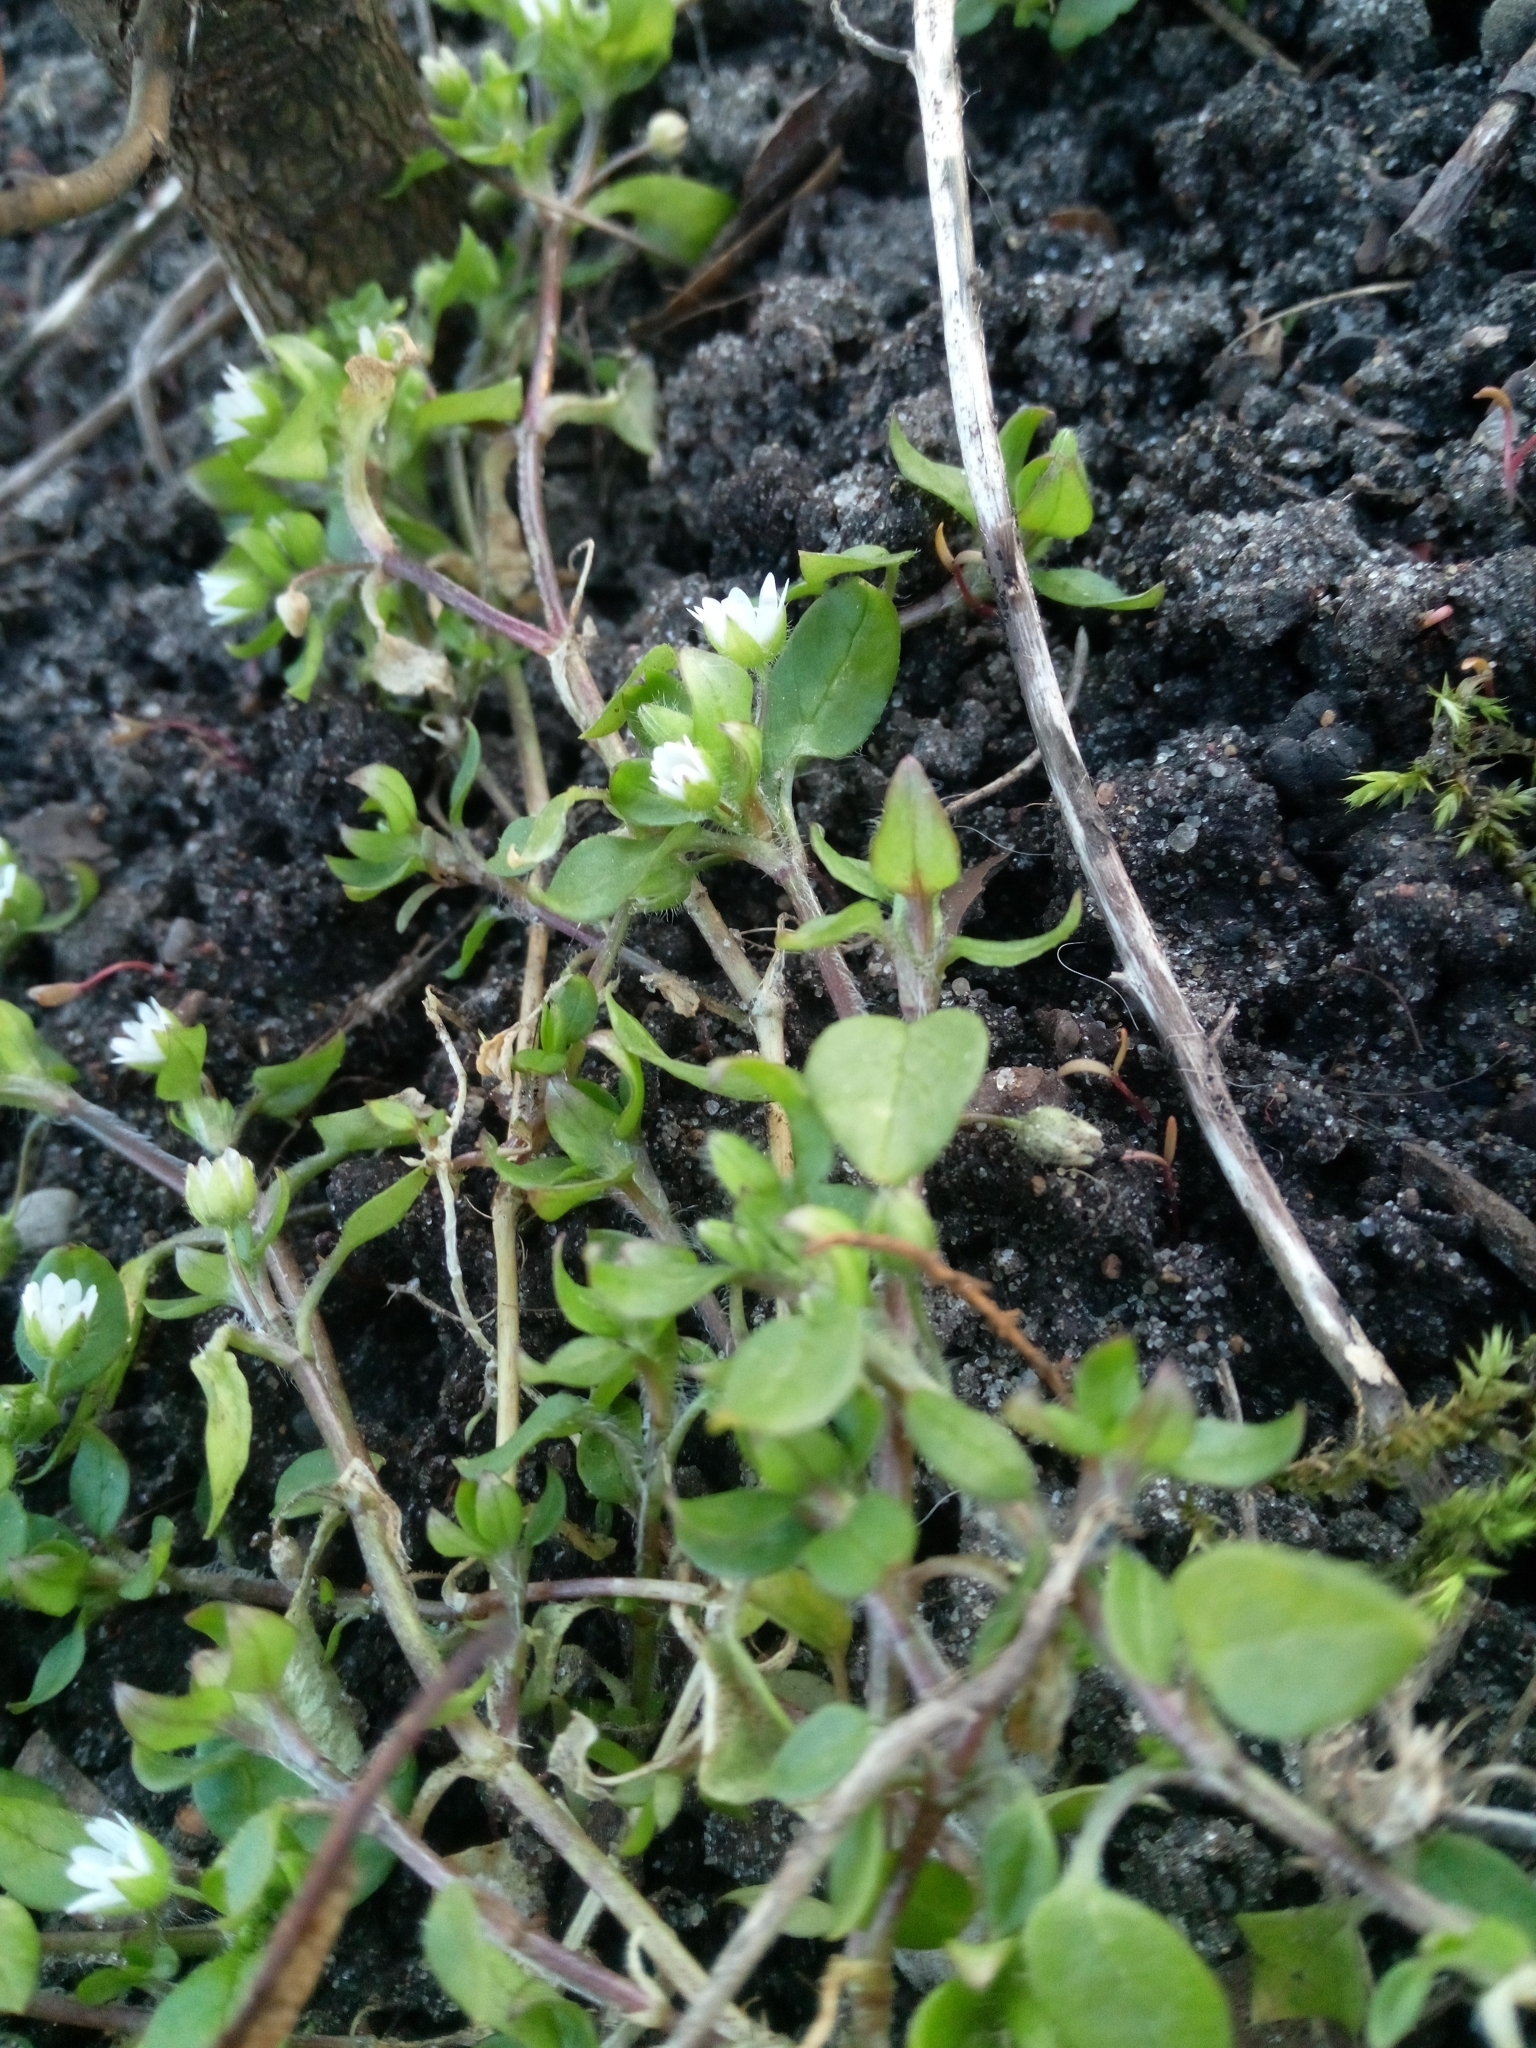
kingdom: Plantae
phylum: Tracheophyta
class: Magnoliopsida
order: Caryophyllales
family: Caryophyllaceae
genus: Stellaria
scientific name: Stellaria media
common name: Common chickweed
